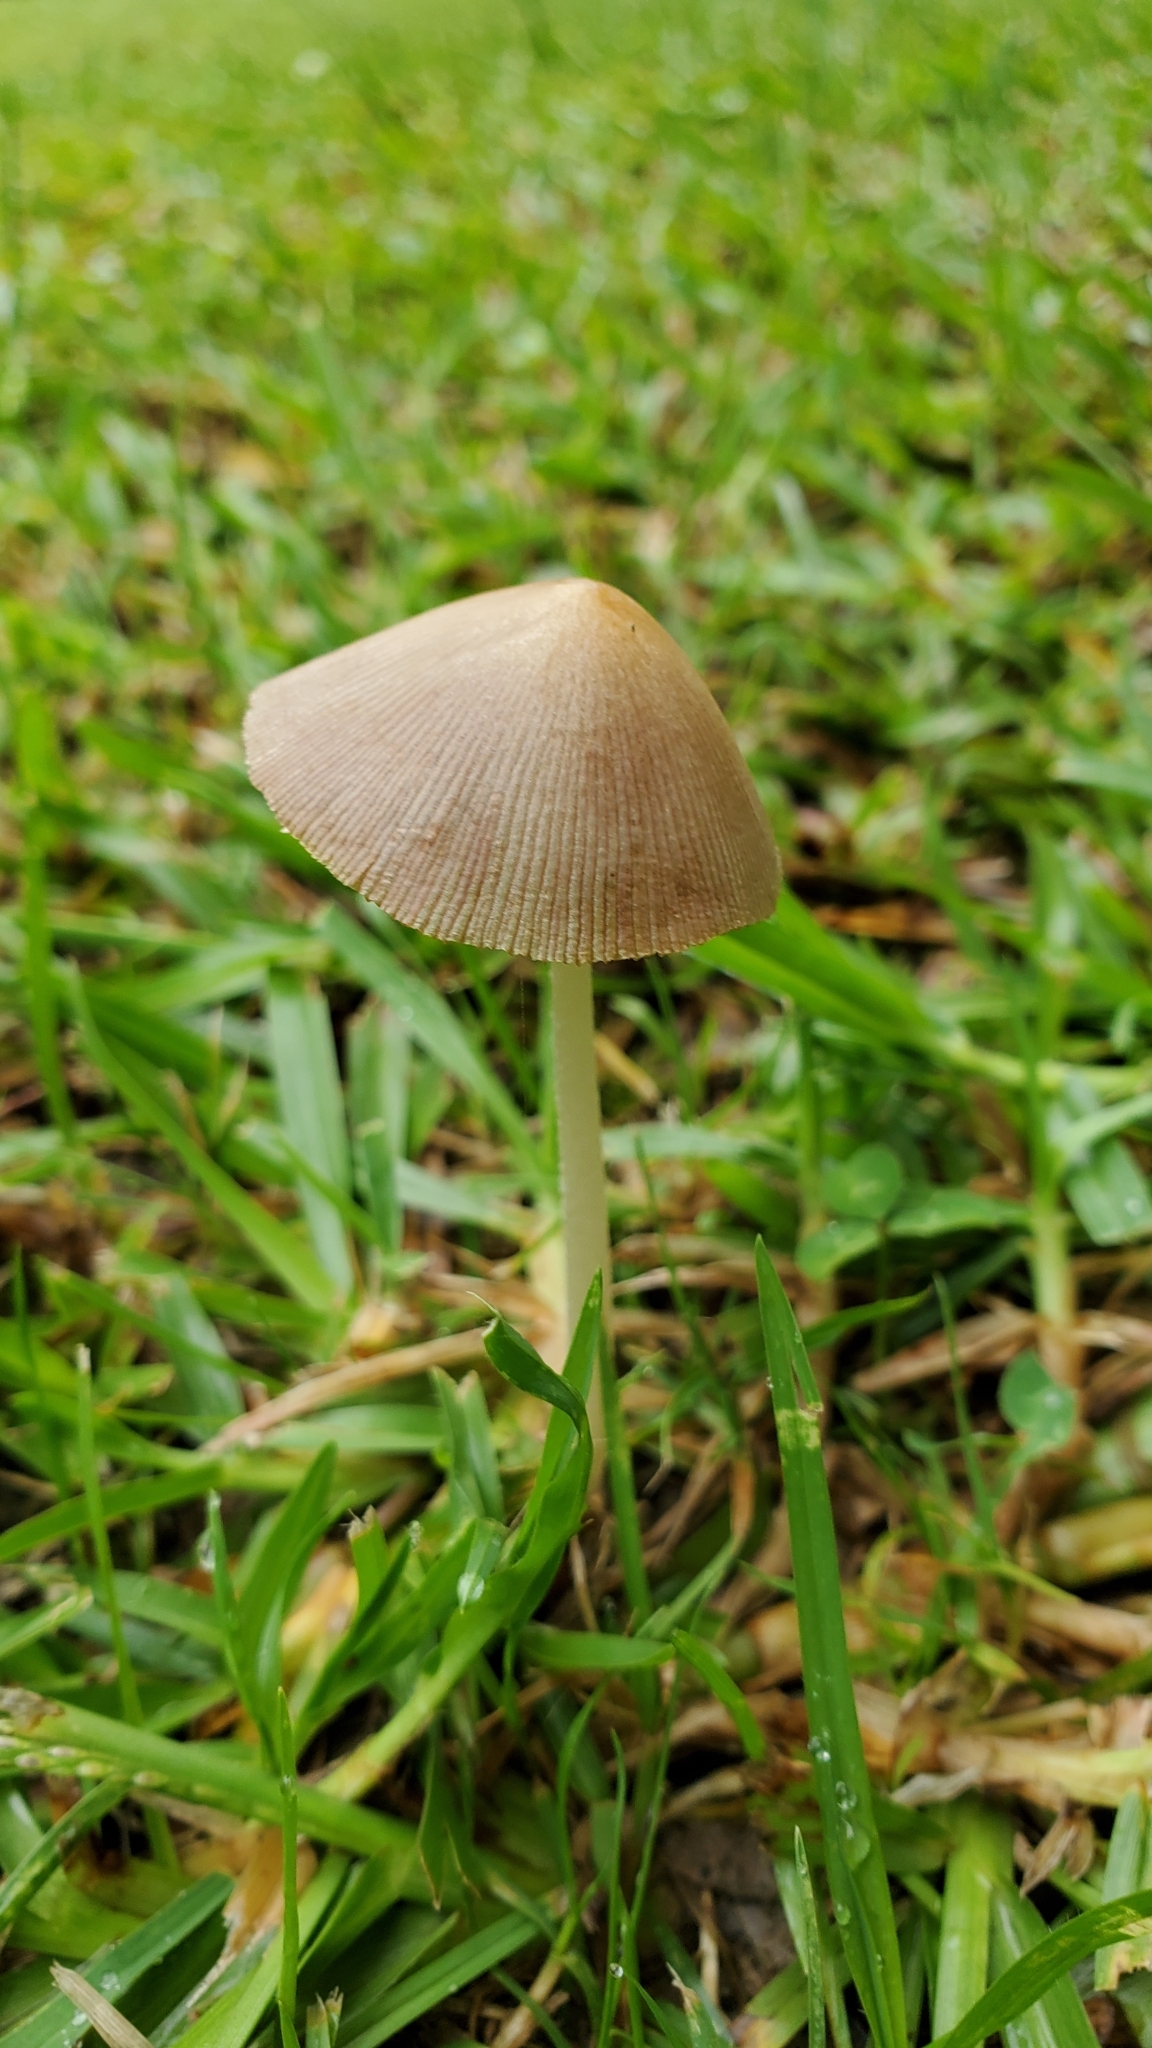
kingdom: Fungi
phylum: Basidiomycota
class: Agaricomycetes
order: Agaricales
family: Bolbitiaceae
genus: Conocybe
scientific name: Conocybe apala
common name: Milky conecap
